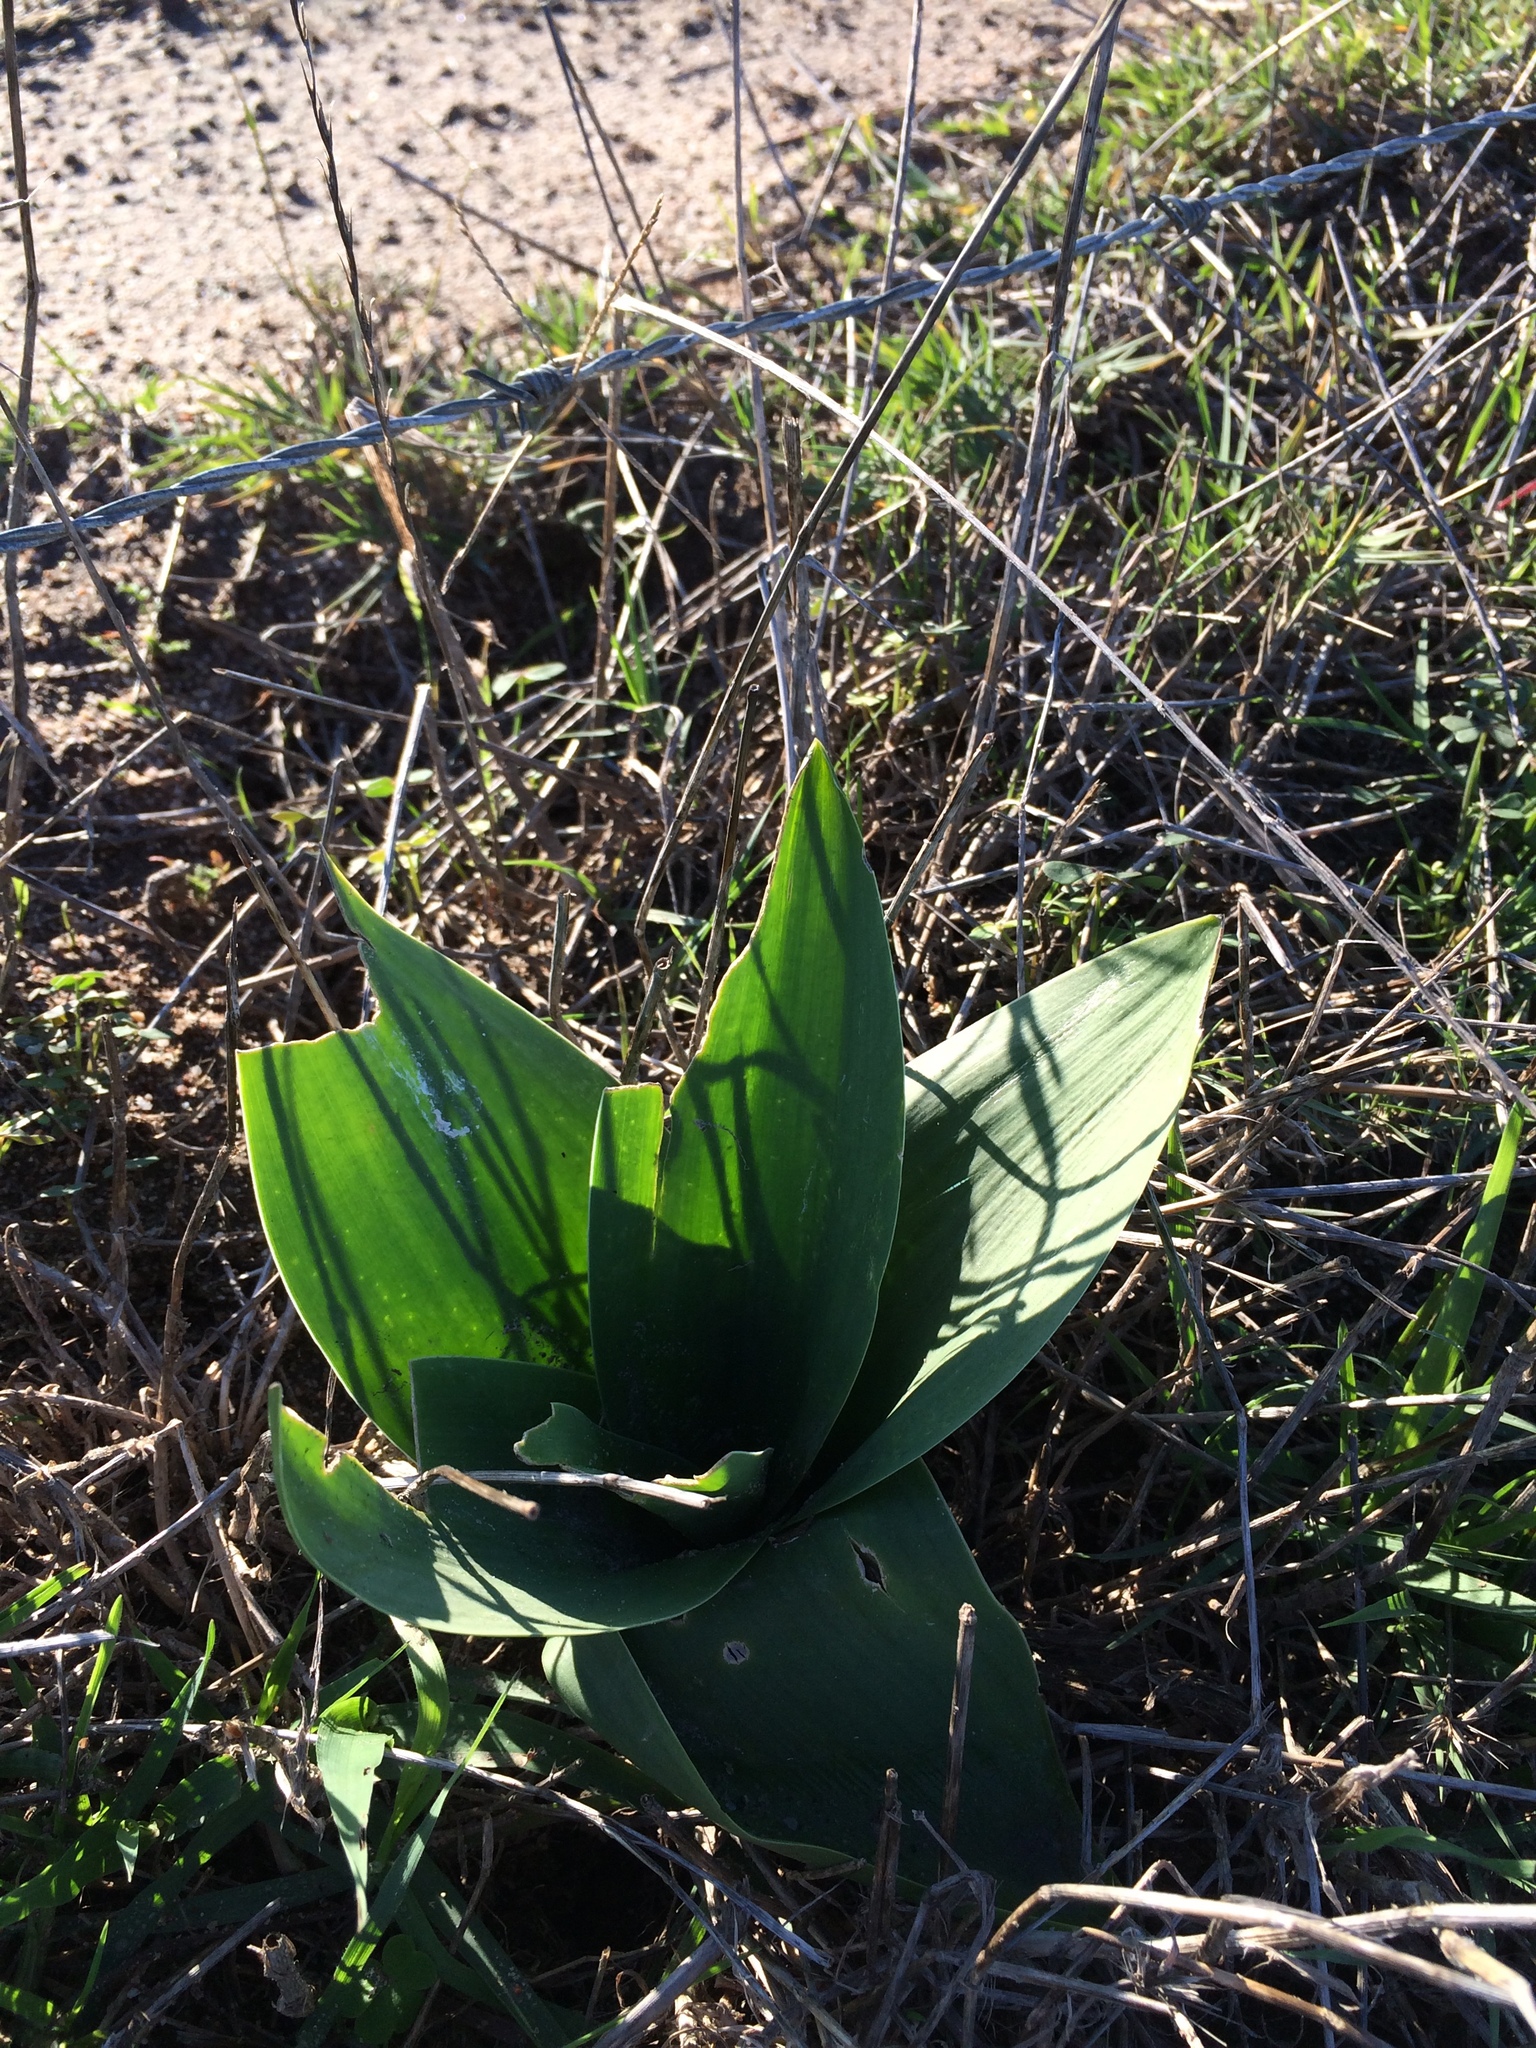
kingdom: Plantae
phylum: Tracheophyta
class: Liliopsida
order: Asparagales
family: Asparagaceae
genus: Drimia
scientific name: Drimia capensis
